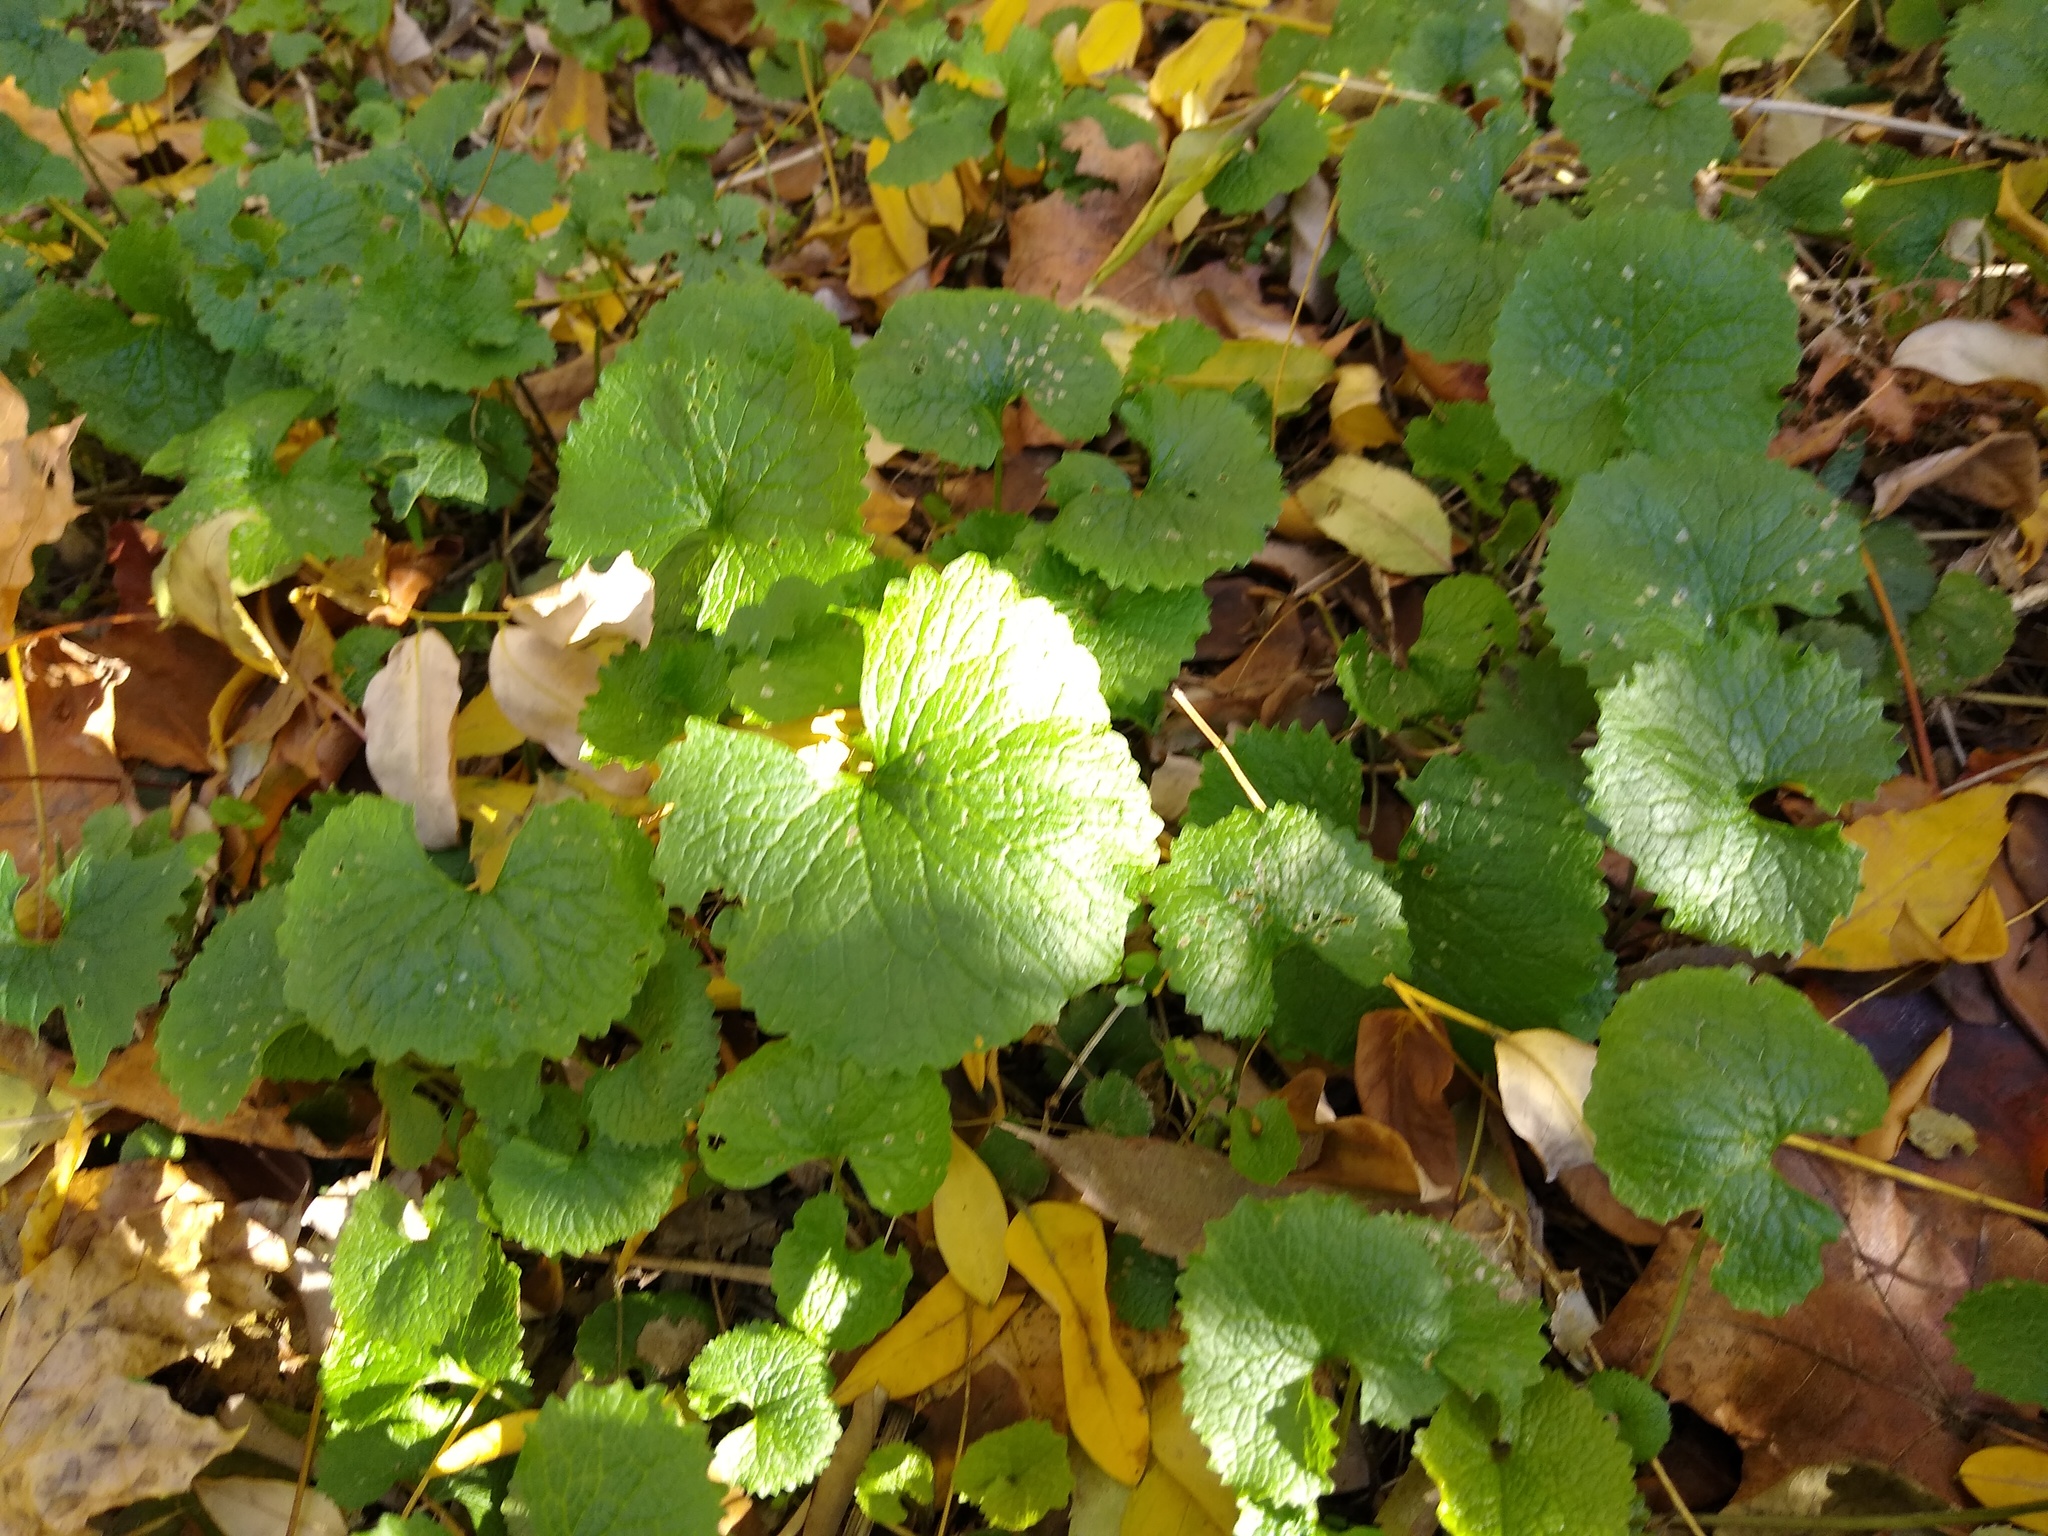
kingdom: Plantae
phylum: Tracheophyta
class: Magnoliopsida
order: Brassicales
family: Brassicaceae
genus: Alliaria
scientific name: Alliaria petiolata
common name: Garlic mustard
